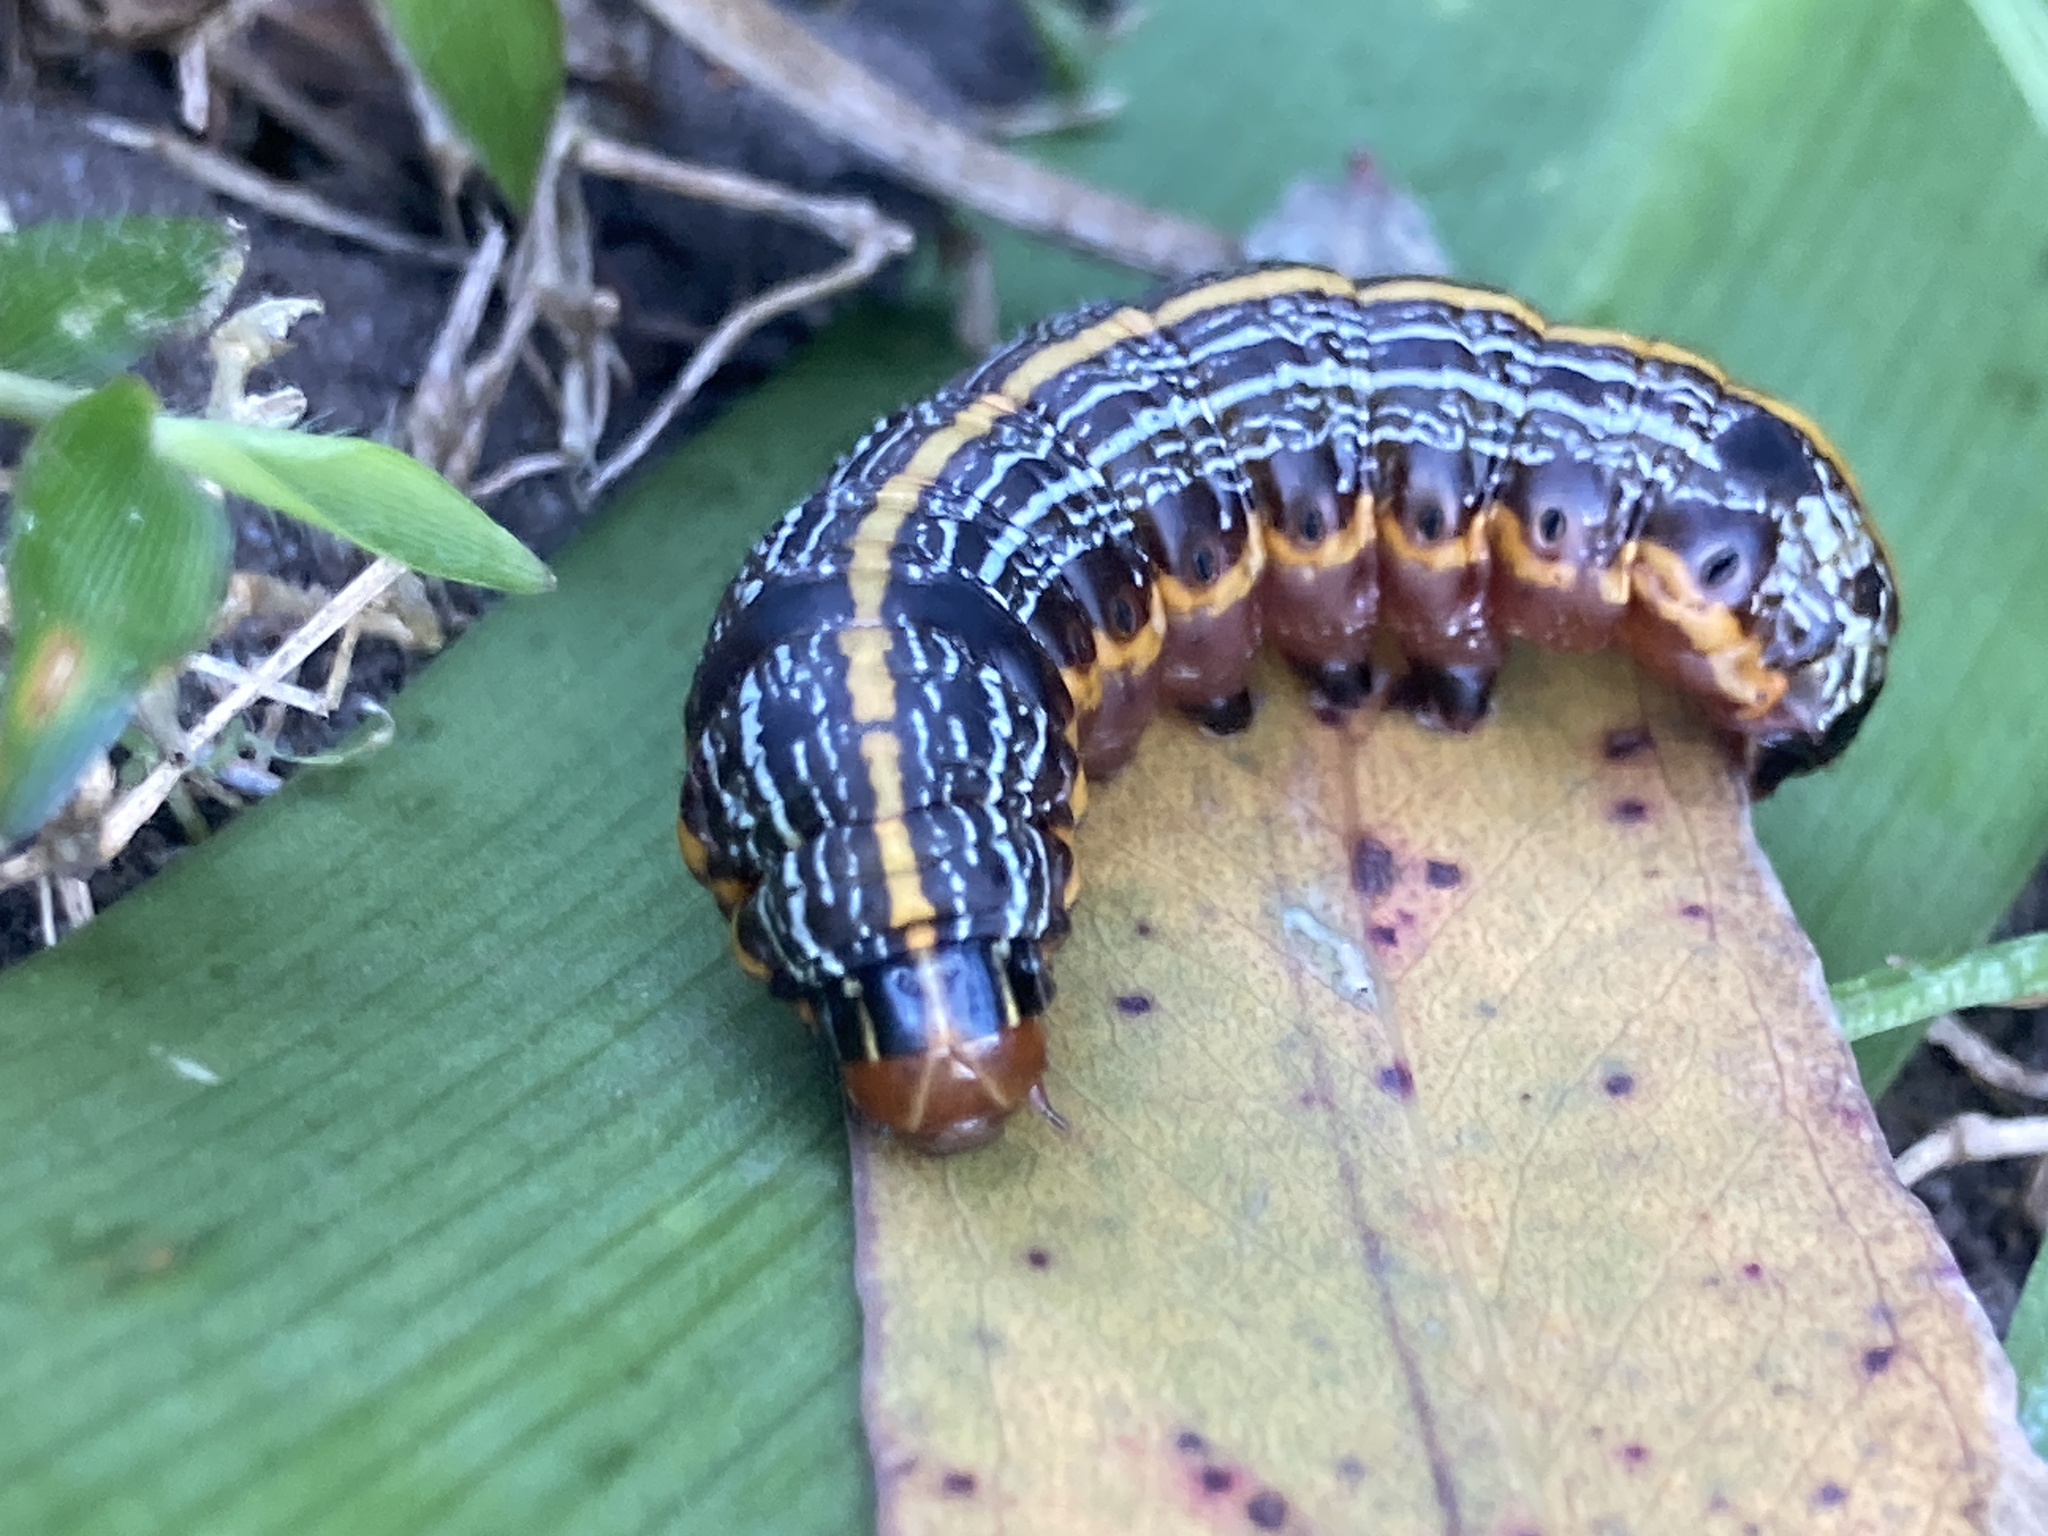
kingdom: Animalia
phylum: Arthropoda
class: Insecta
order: Lepidoptera
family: Noctuidae
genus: Spodoptera
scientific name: Spodoptera picta
